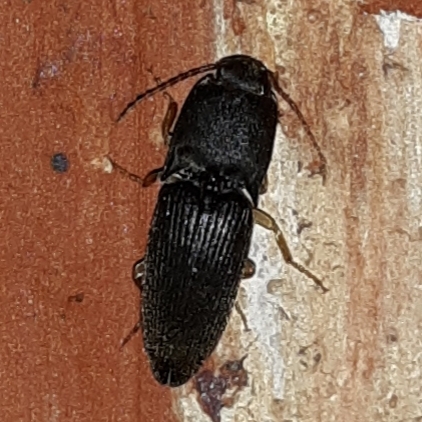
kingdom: Animalia
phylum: Arthropoda
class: Insecta
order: Coleoptera
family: Elateridae
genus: Heteroderes
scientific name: Heteroderes amplicollis
